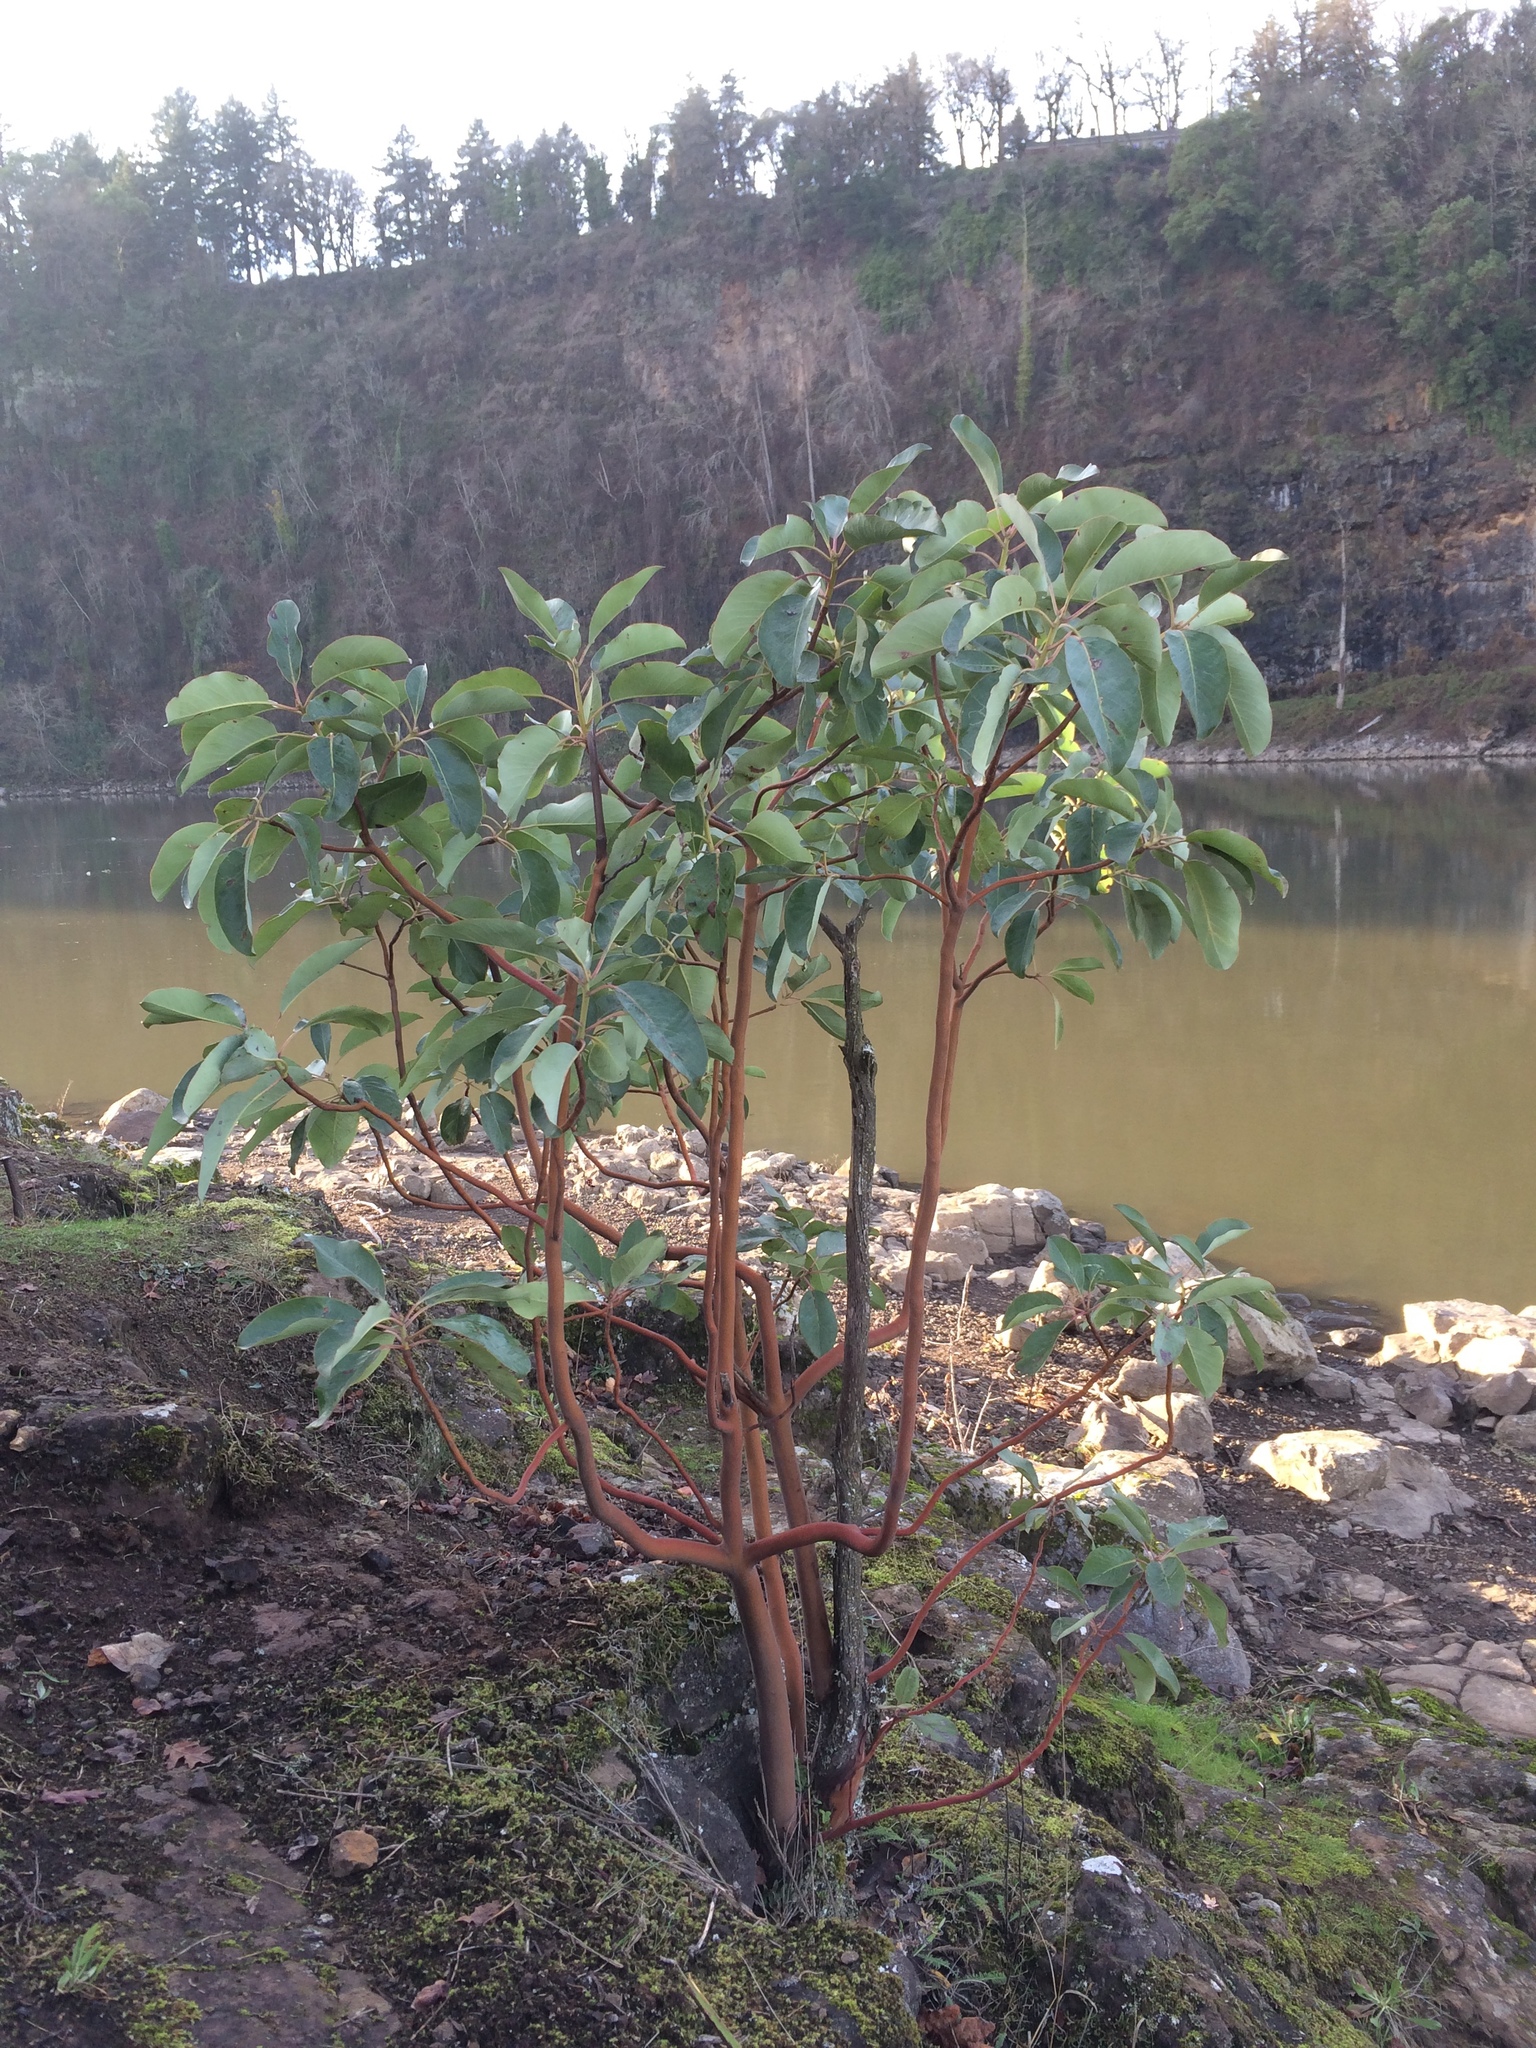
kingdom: Plantae
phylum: Tracheophyta
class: Magnoliopsida
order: Ericales
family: Ericaceae
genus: Arbutus
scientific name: Arbutus menziesii
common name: Pacific madrone
